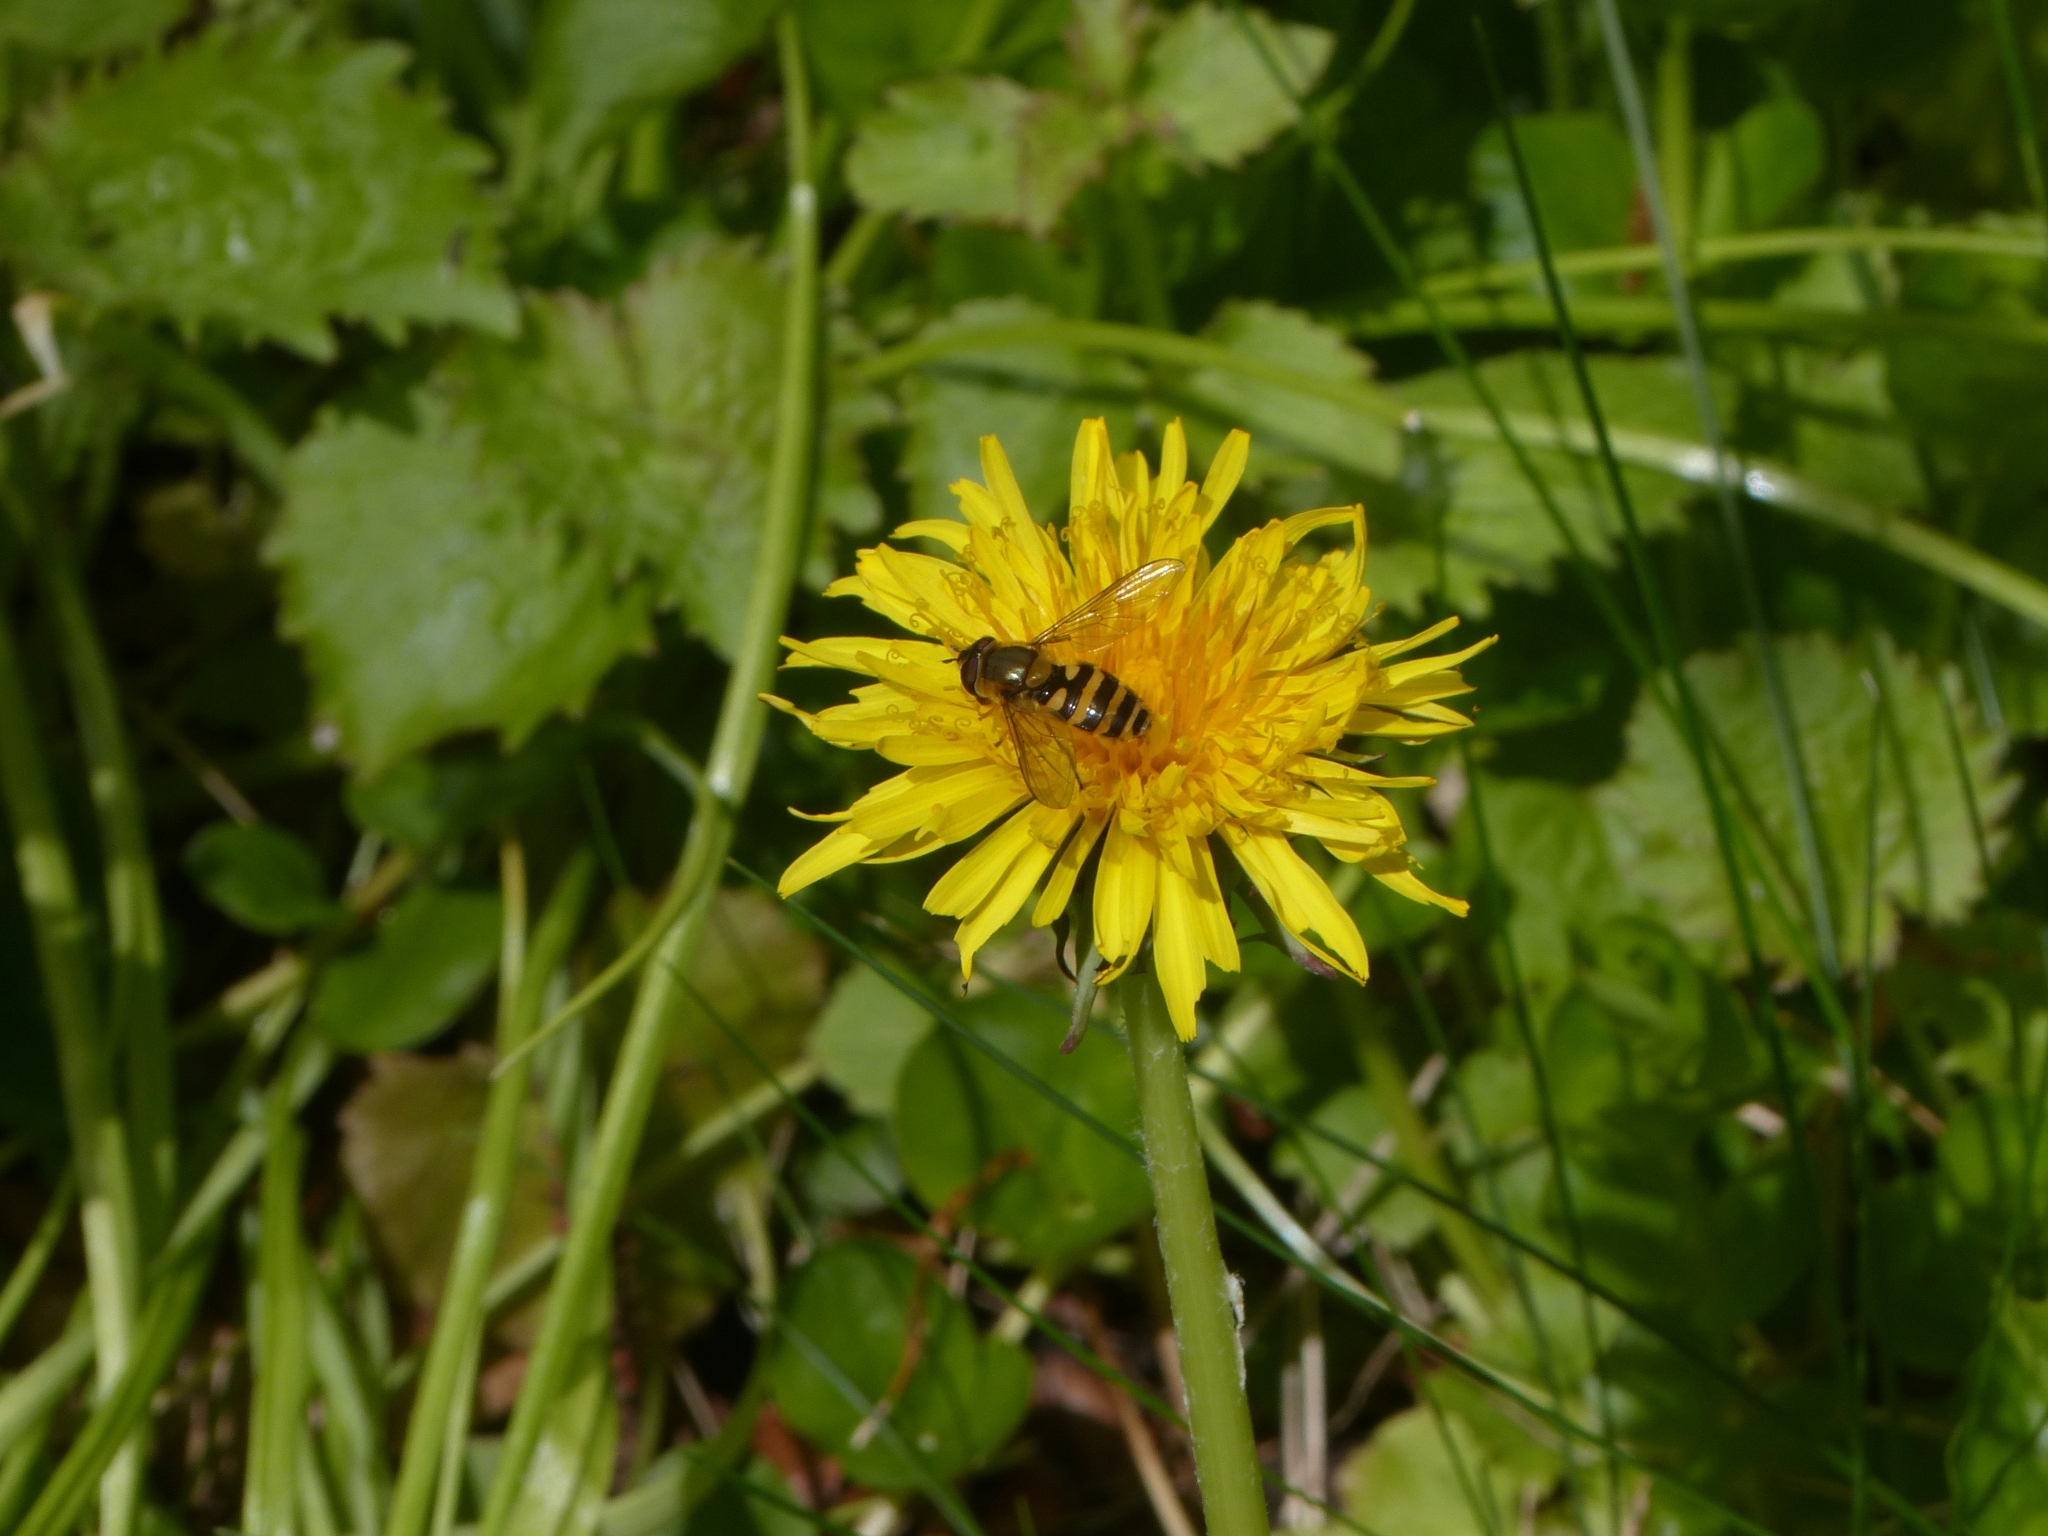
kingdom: Animalia
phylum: Arthropoda
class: Insecta
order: Diptera
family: Syrphidae
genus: Syrphus
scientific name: Syrphus
